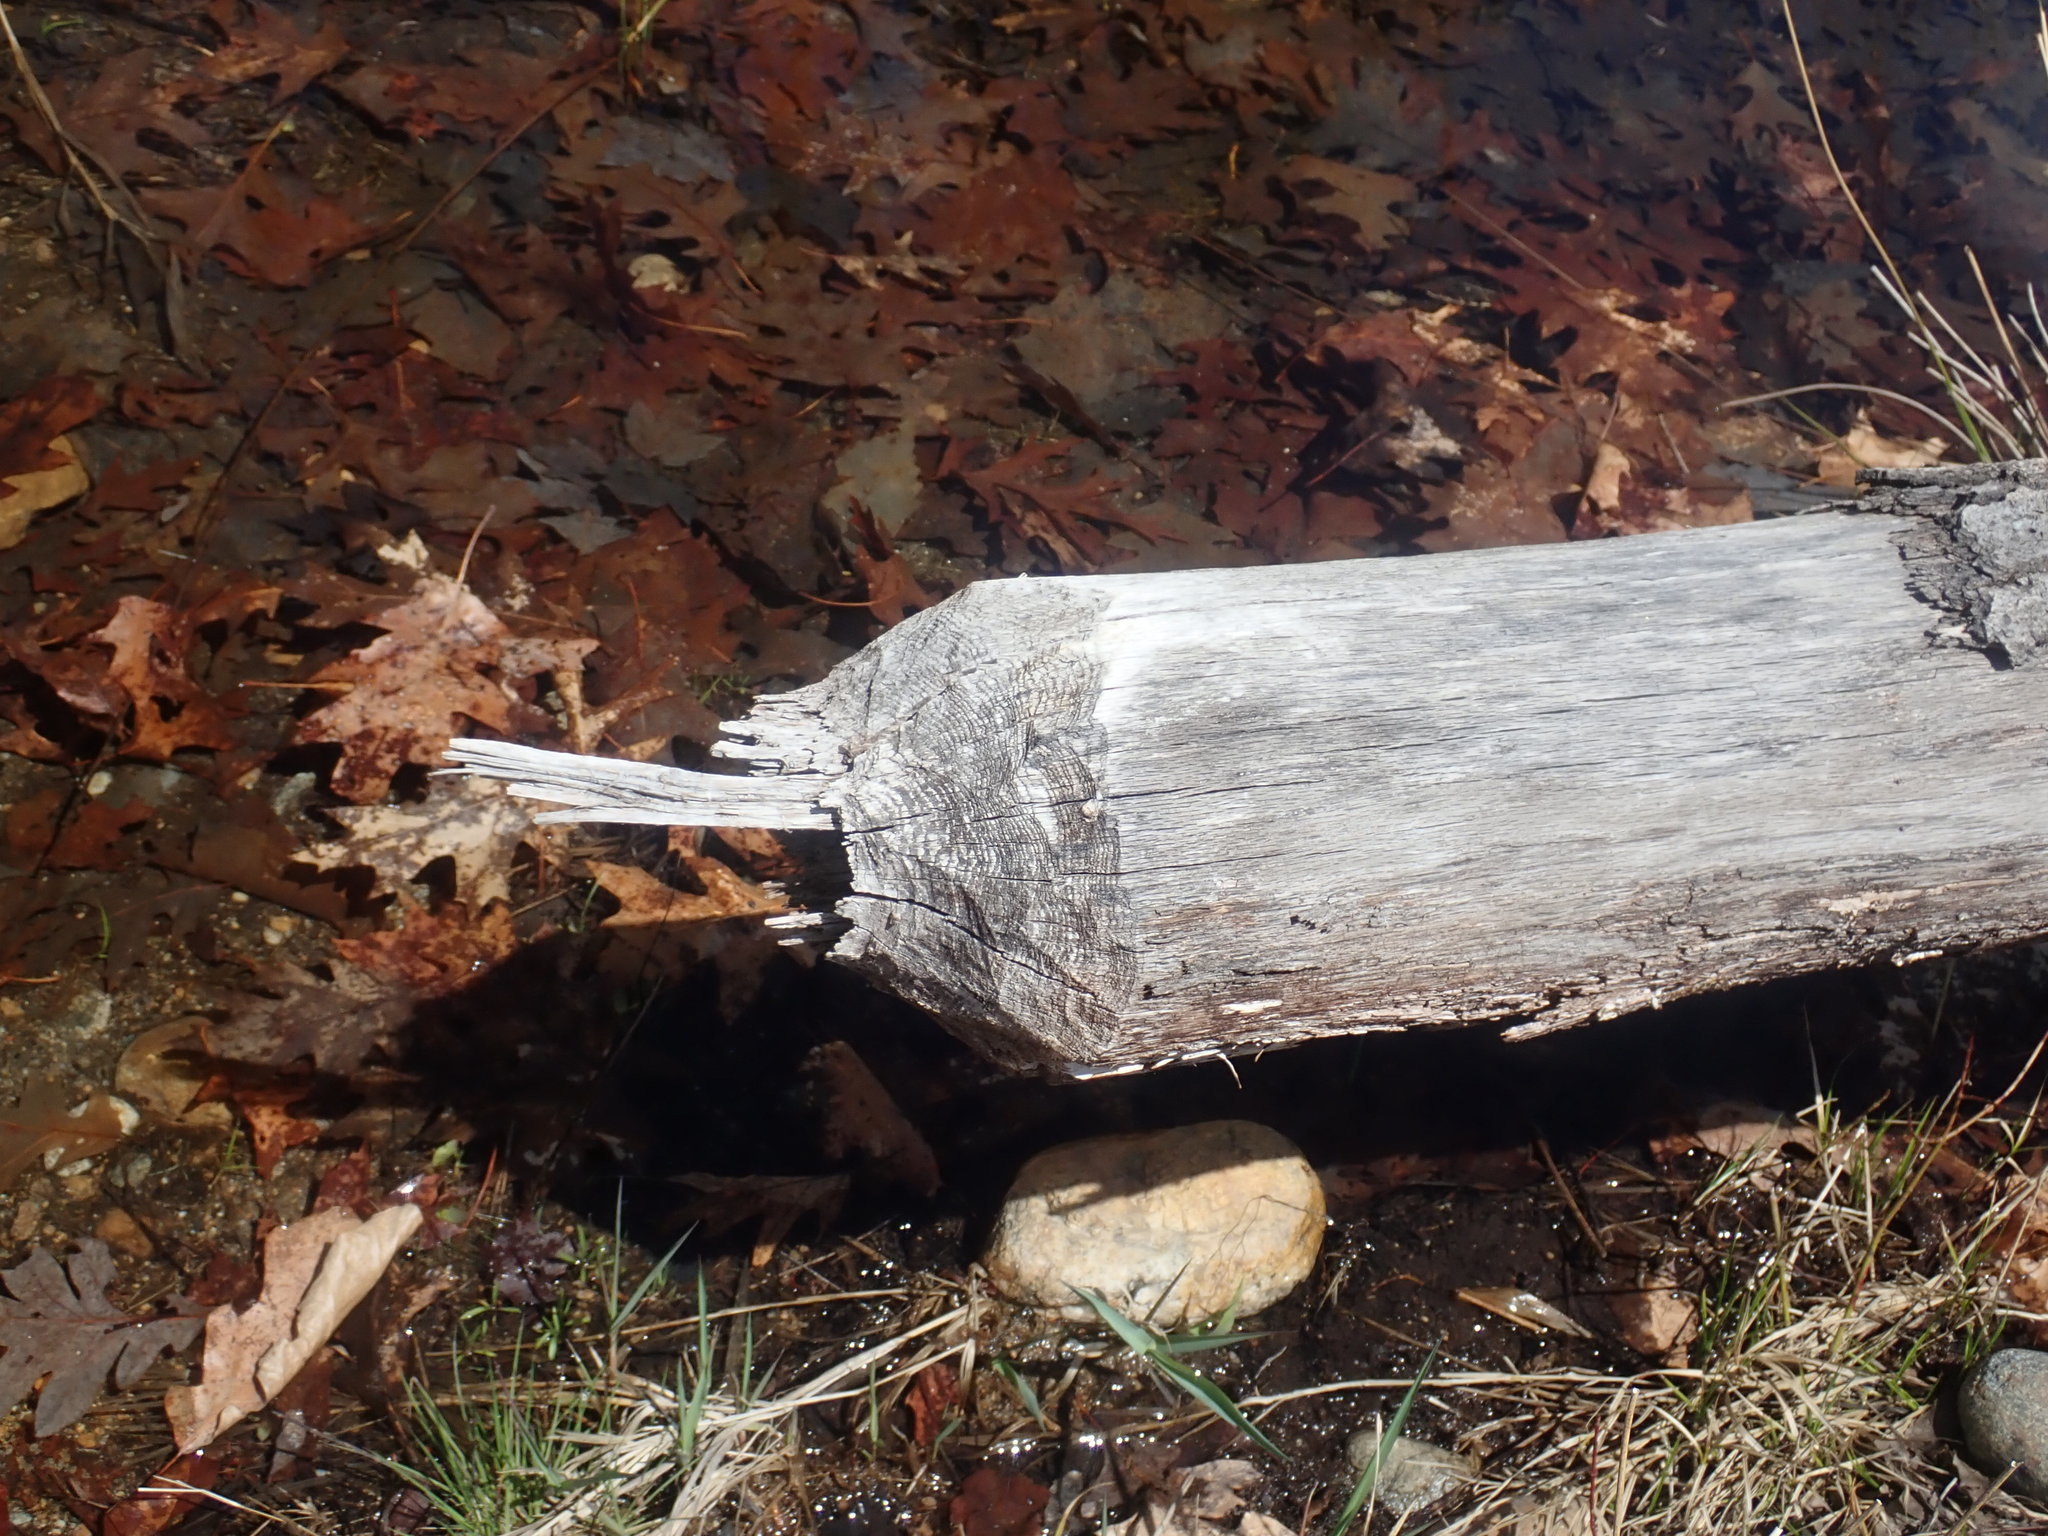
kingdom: Animalia
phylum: Chordata
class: Mammalia
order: Rodentia
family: Castoridae
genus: Castor
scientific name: Castor canadensis
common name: American beaver
